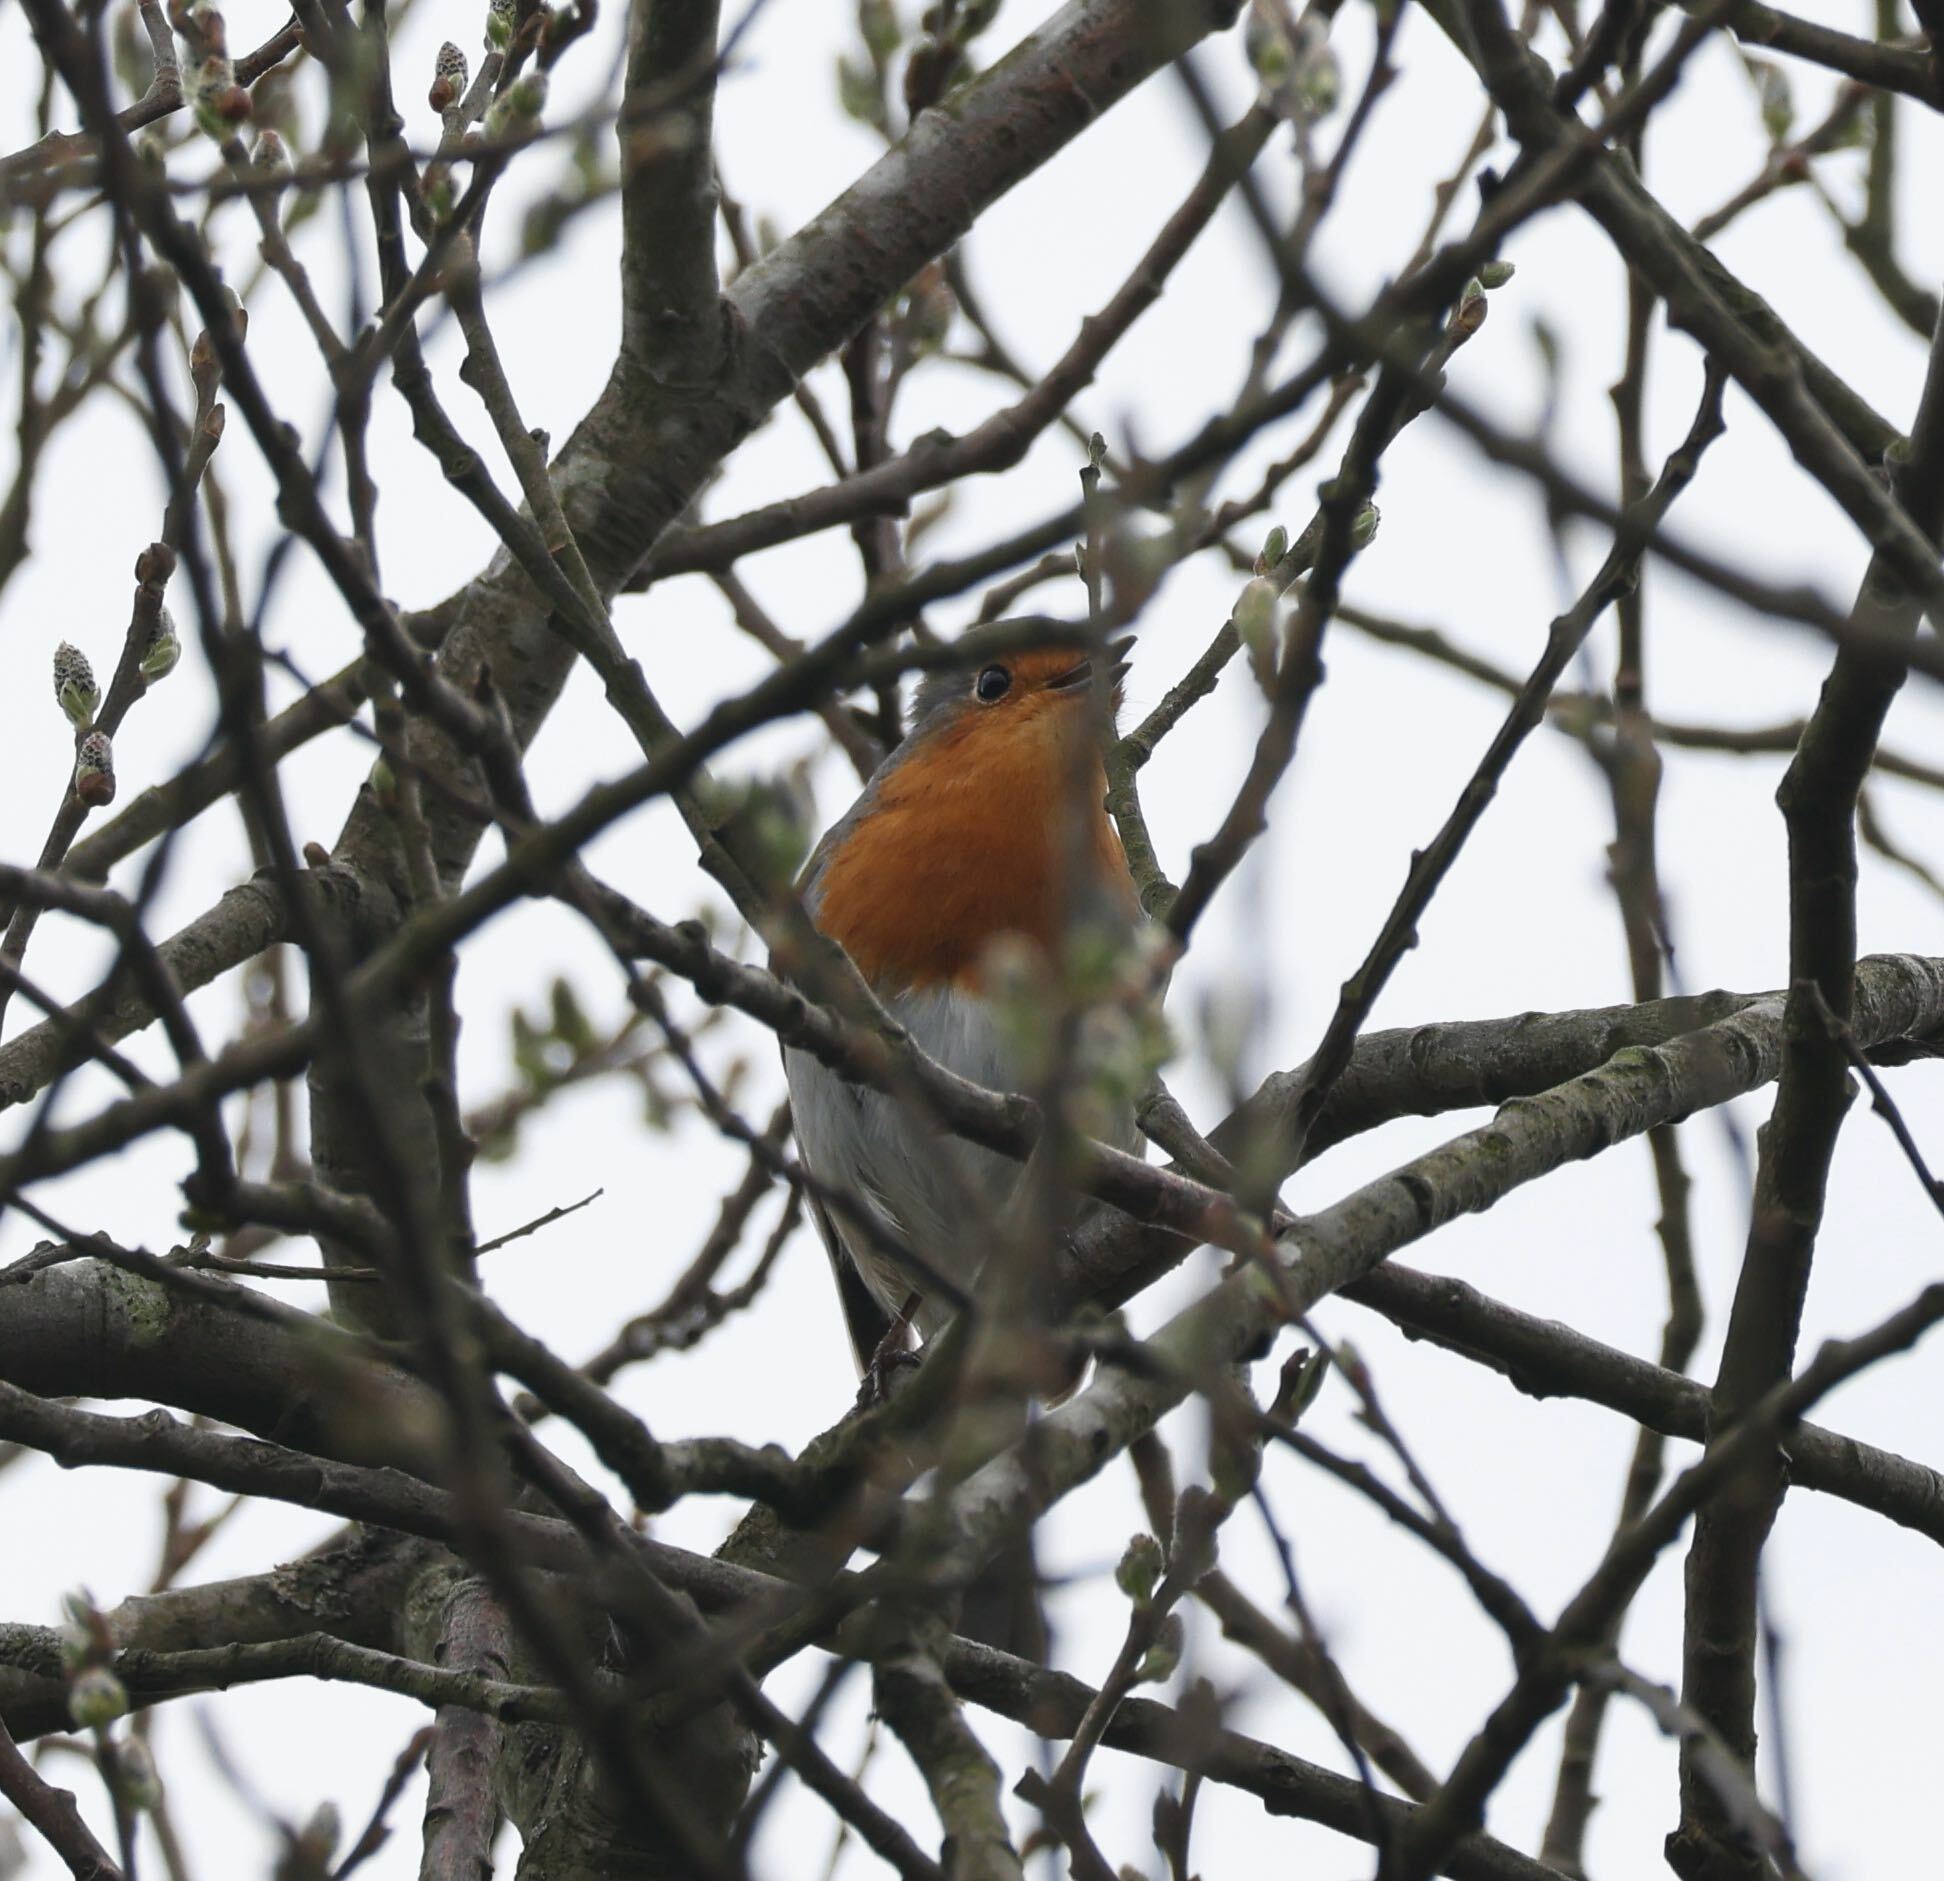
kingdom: Animalia
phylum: Chordata
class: Aves
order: Passeriformes
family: Muscicapidae
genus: Erithacus
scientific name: Erithacus rubecula
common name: European robin
